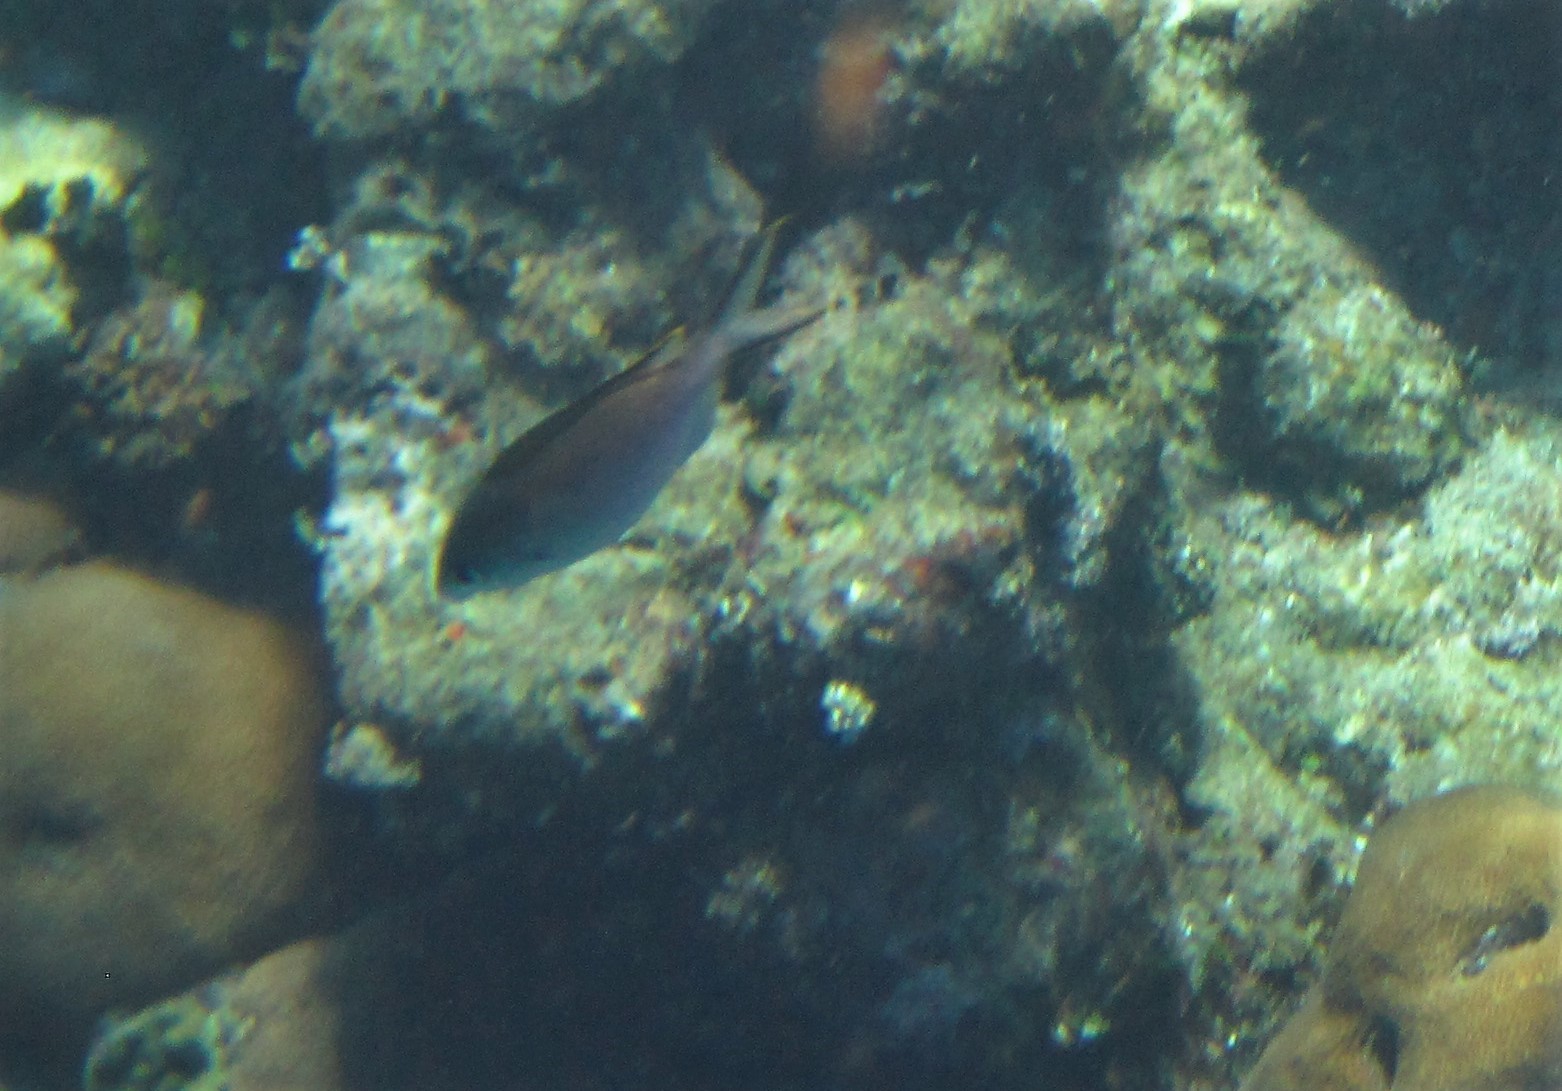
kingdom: Animalia
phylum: Chordata
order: Perciformes
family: Pomacentridae
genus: Chromis
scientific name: Chromis multilineata
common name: Brown chromis
